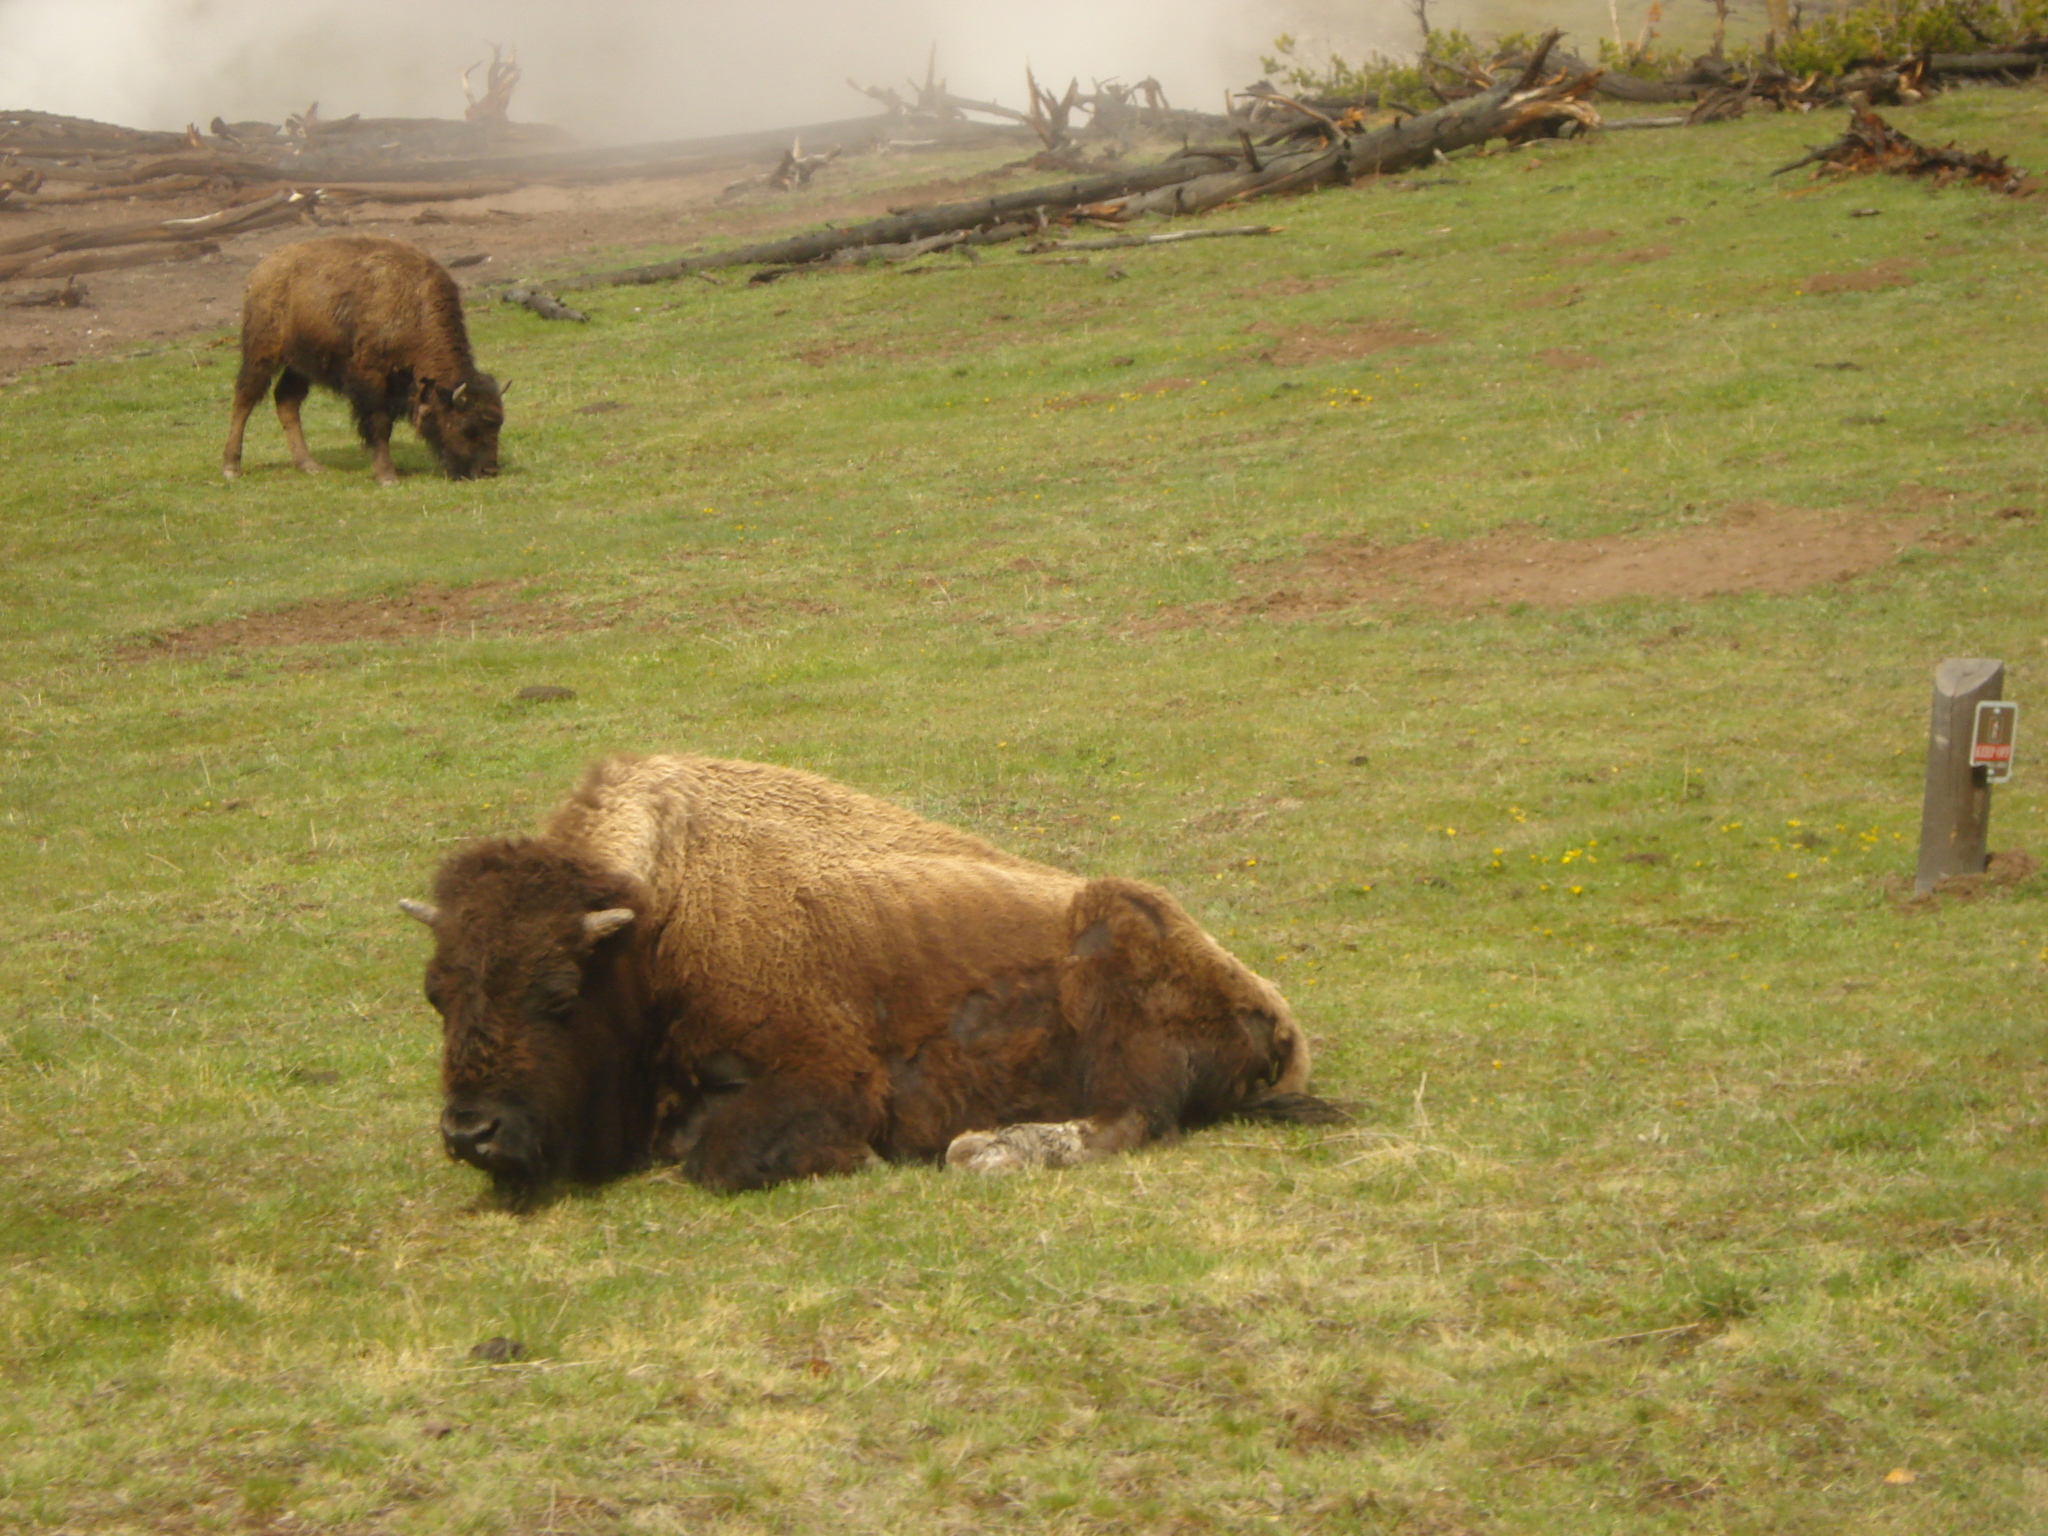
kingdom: Animalia
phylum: Chordata
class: Mammalia
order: Artiodactyla
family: Bovidae
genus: Bison
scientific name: Bison bison
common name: American bison
